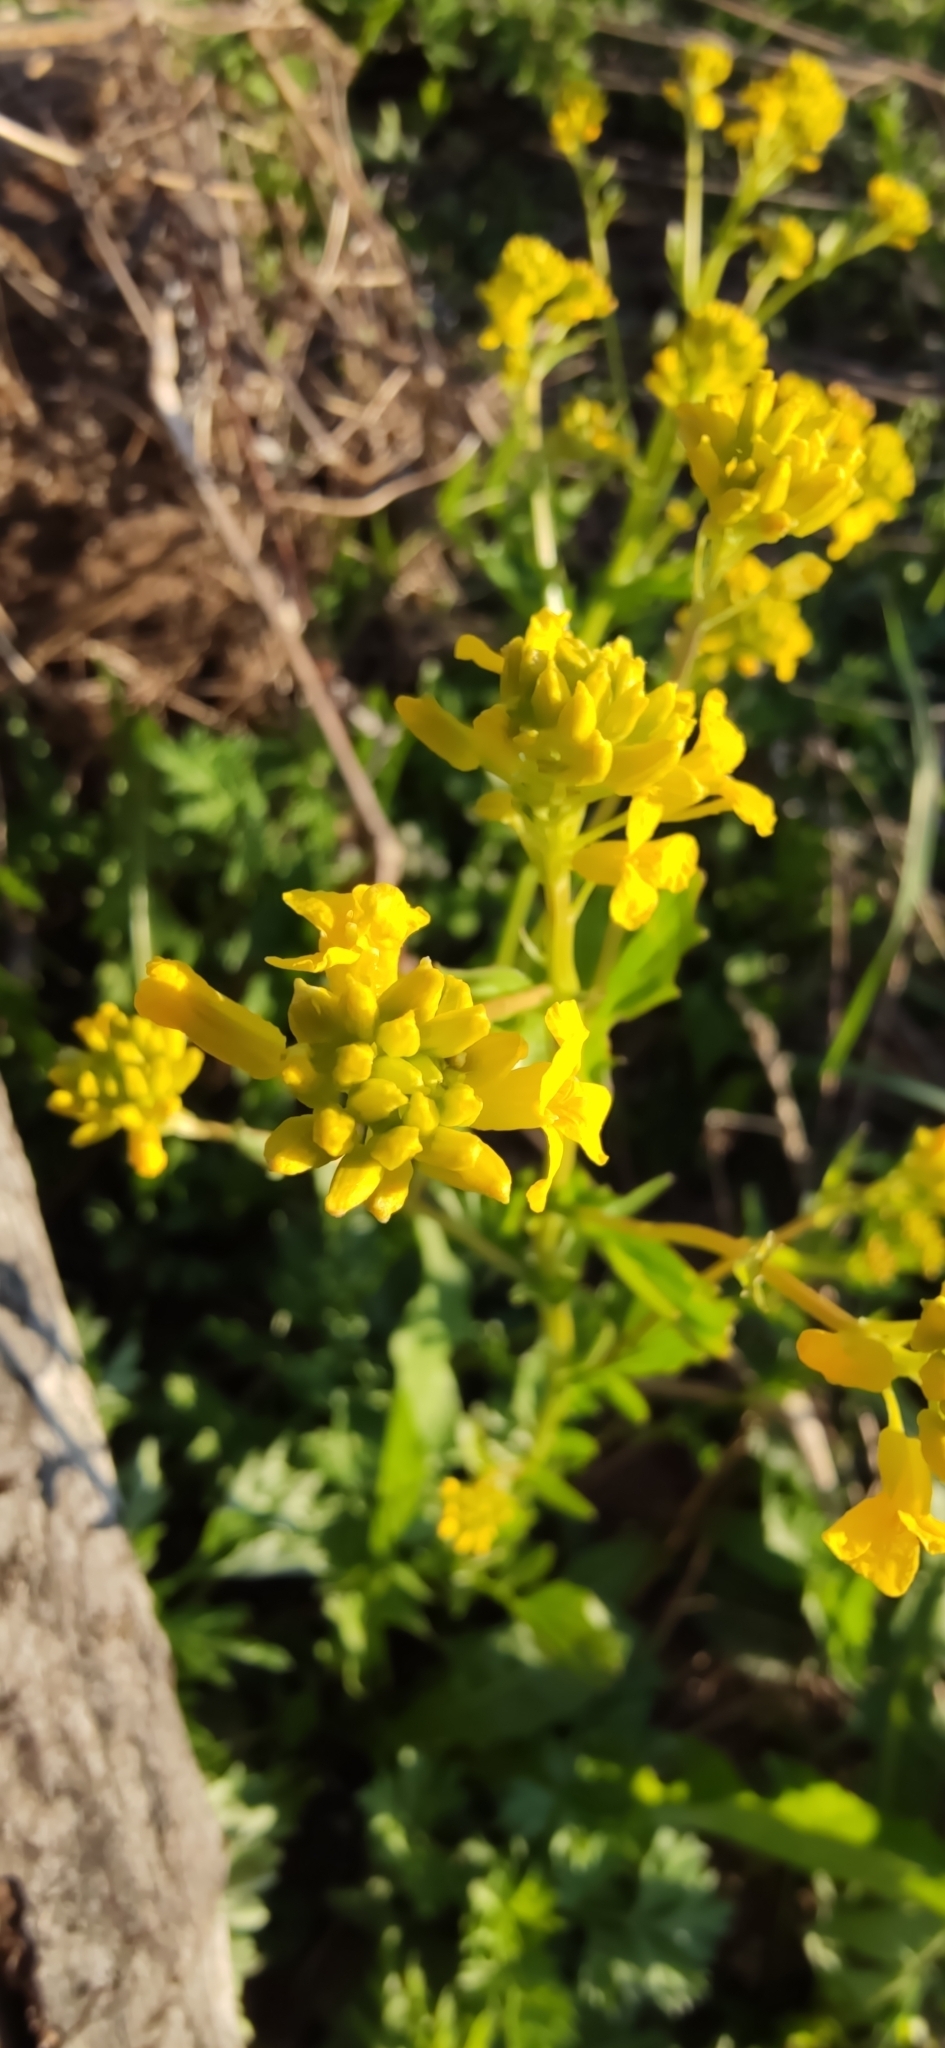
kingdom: Plantae
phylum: Tracheophyta
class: Magnoliopsida
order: Brassicales
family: Brassicaceae
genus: Barbarea
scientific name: Barbarea vulgaris
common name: Cressy-greens
